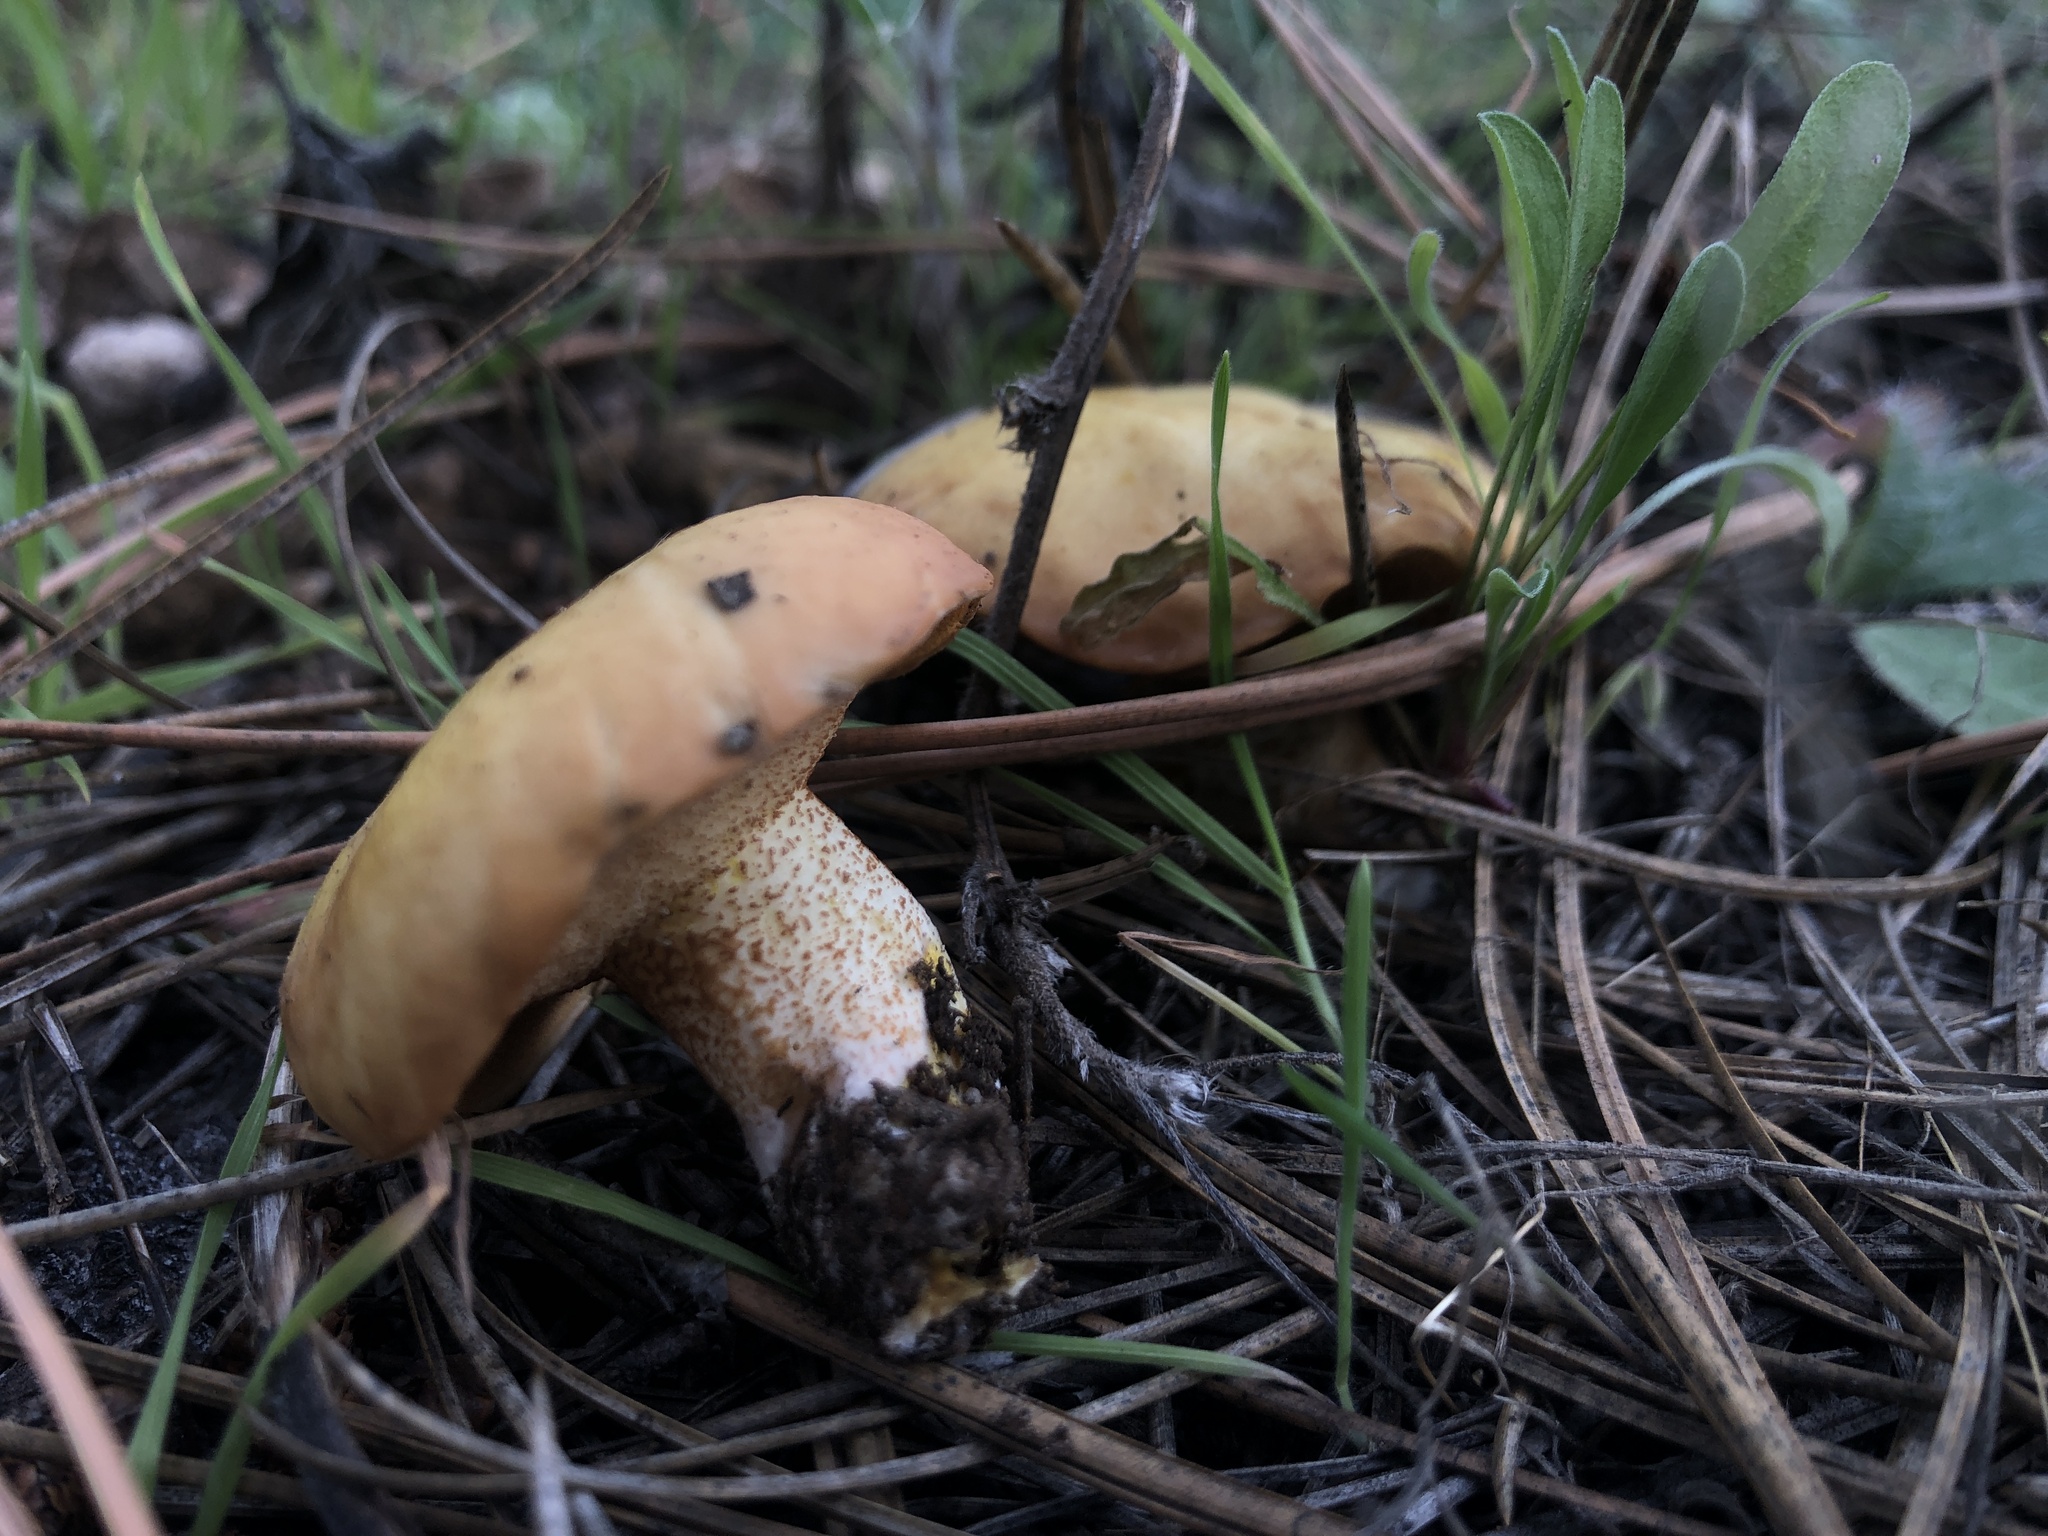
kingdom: Fungi
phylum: Basidiomycota
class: Agaricomycetes
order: Boletales
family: Suillaceae
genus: Suillus
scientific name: Suillus kaibabensis
